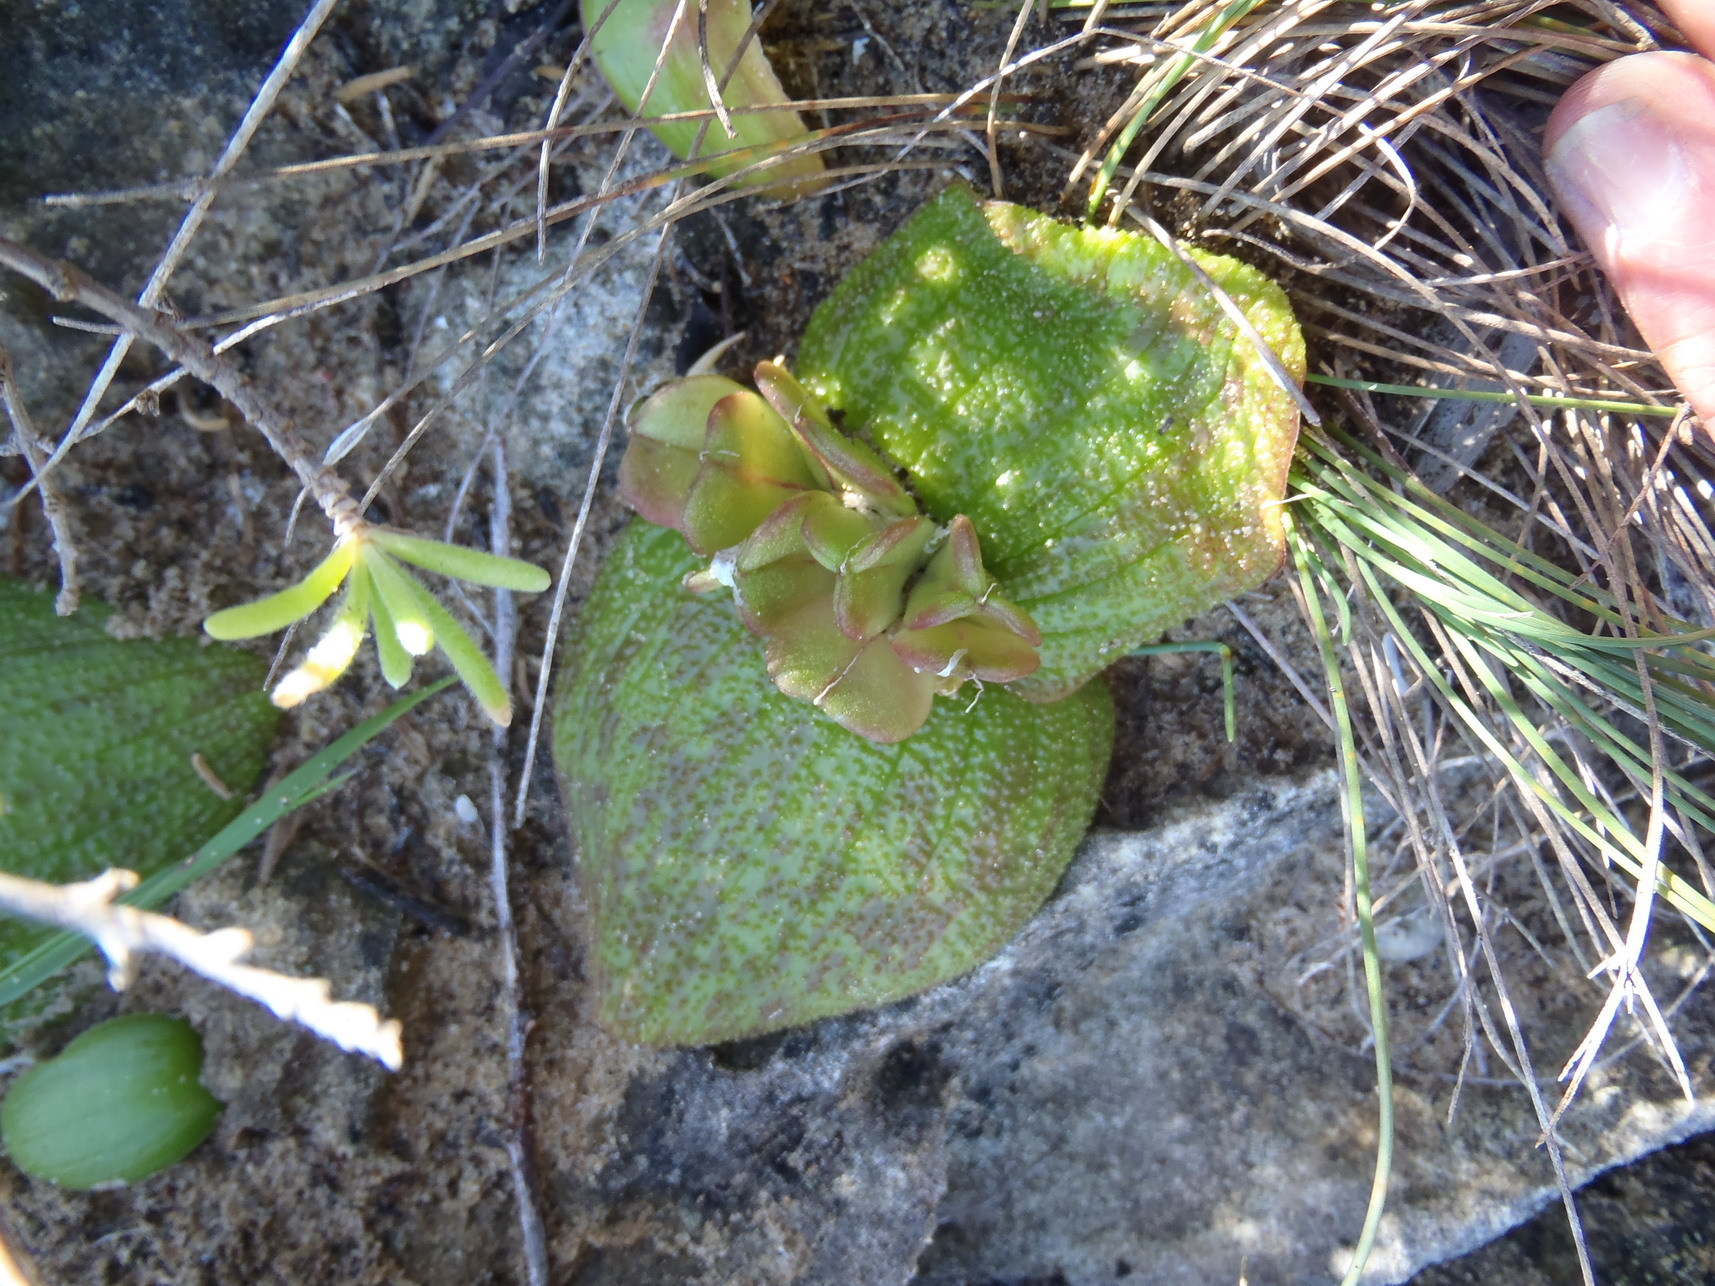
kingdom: Plantae
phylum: Tracheophyta
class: Liliopsida
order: Asparagales
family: Asparagaceae
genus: Massonia
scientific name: Massonia pustulata
